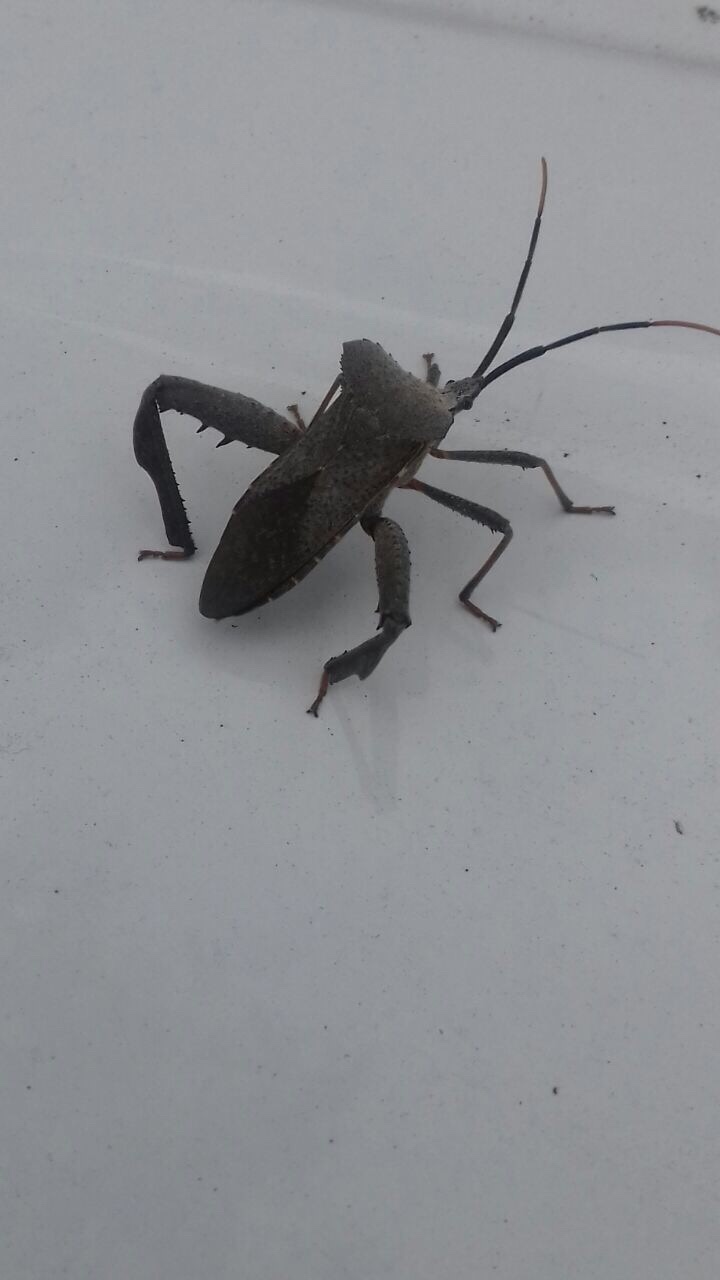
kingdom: Animalia
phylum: Arthropoda
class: Insecta
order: Hemiptera
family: Coreidae
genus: Acanthocephala
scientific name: Acanthocephala alata
